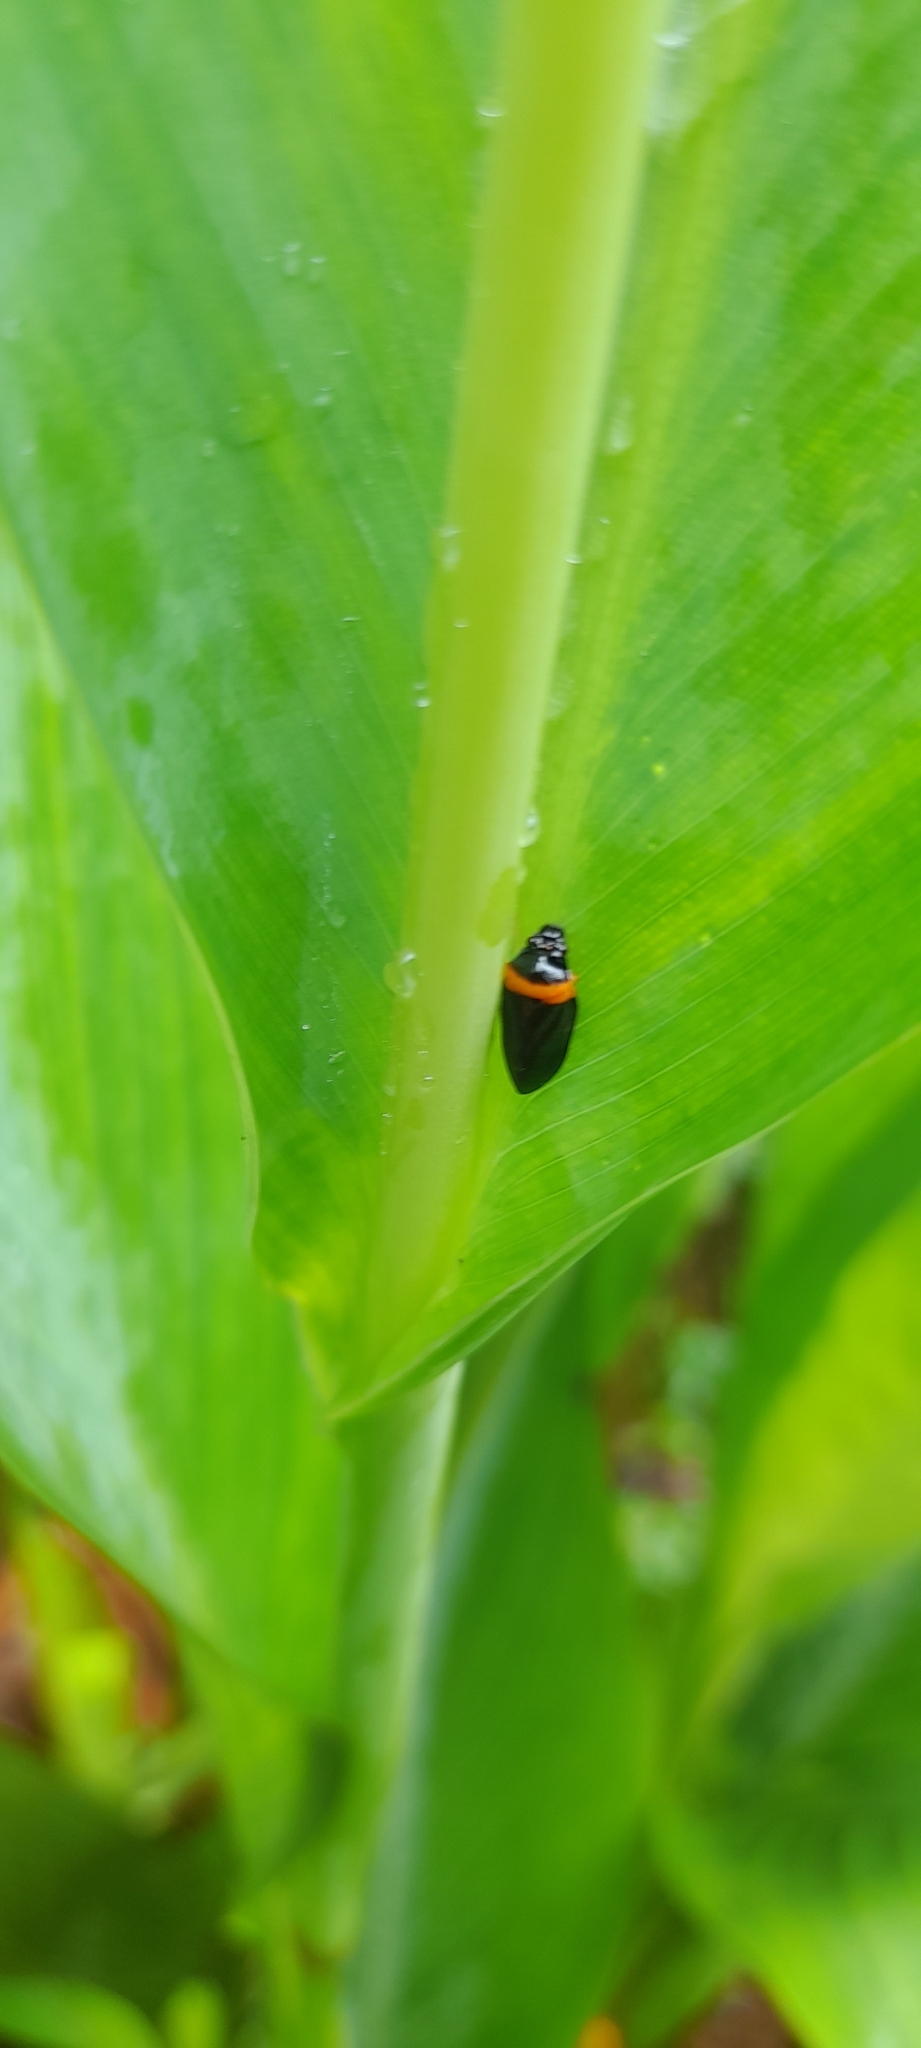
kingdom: Animalia
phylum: Arthropoda
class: Insecta
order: Hemiptera
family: Cercopidae
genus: Phymatostetha
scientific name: Phymatostetha deschampsi
